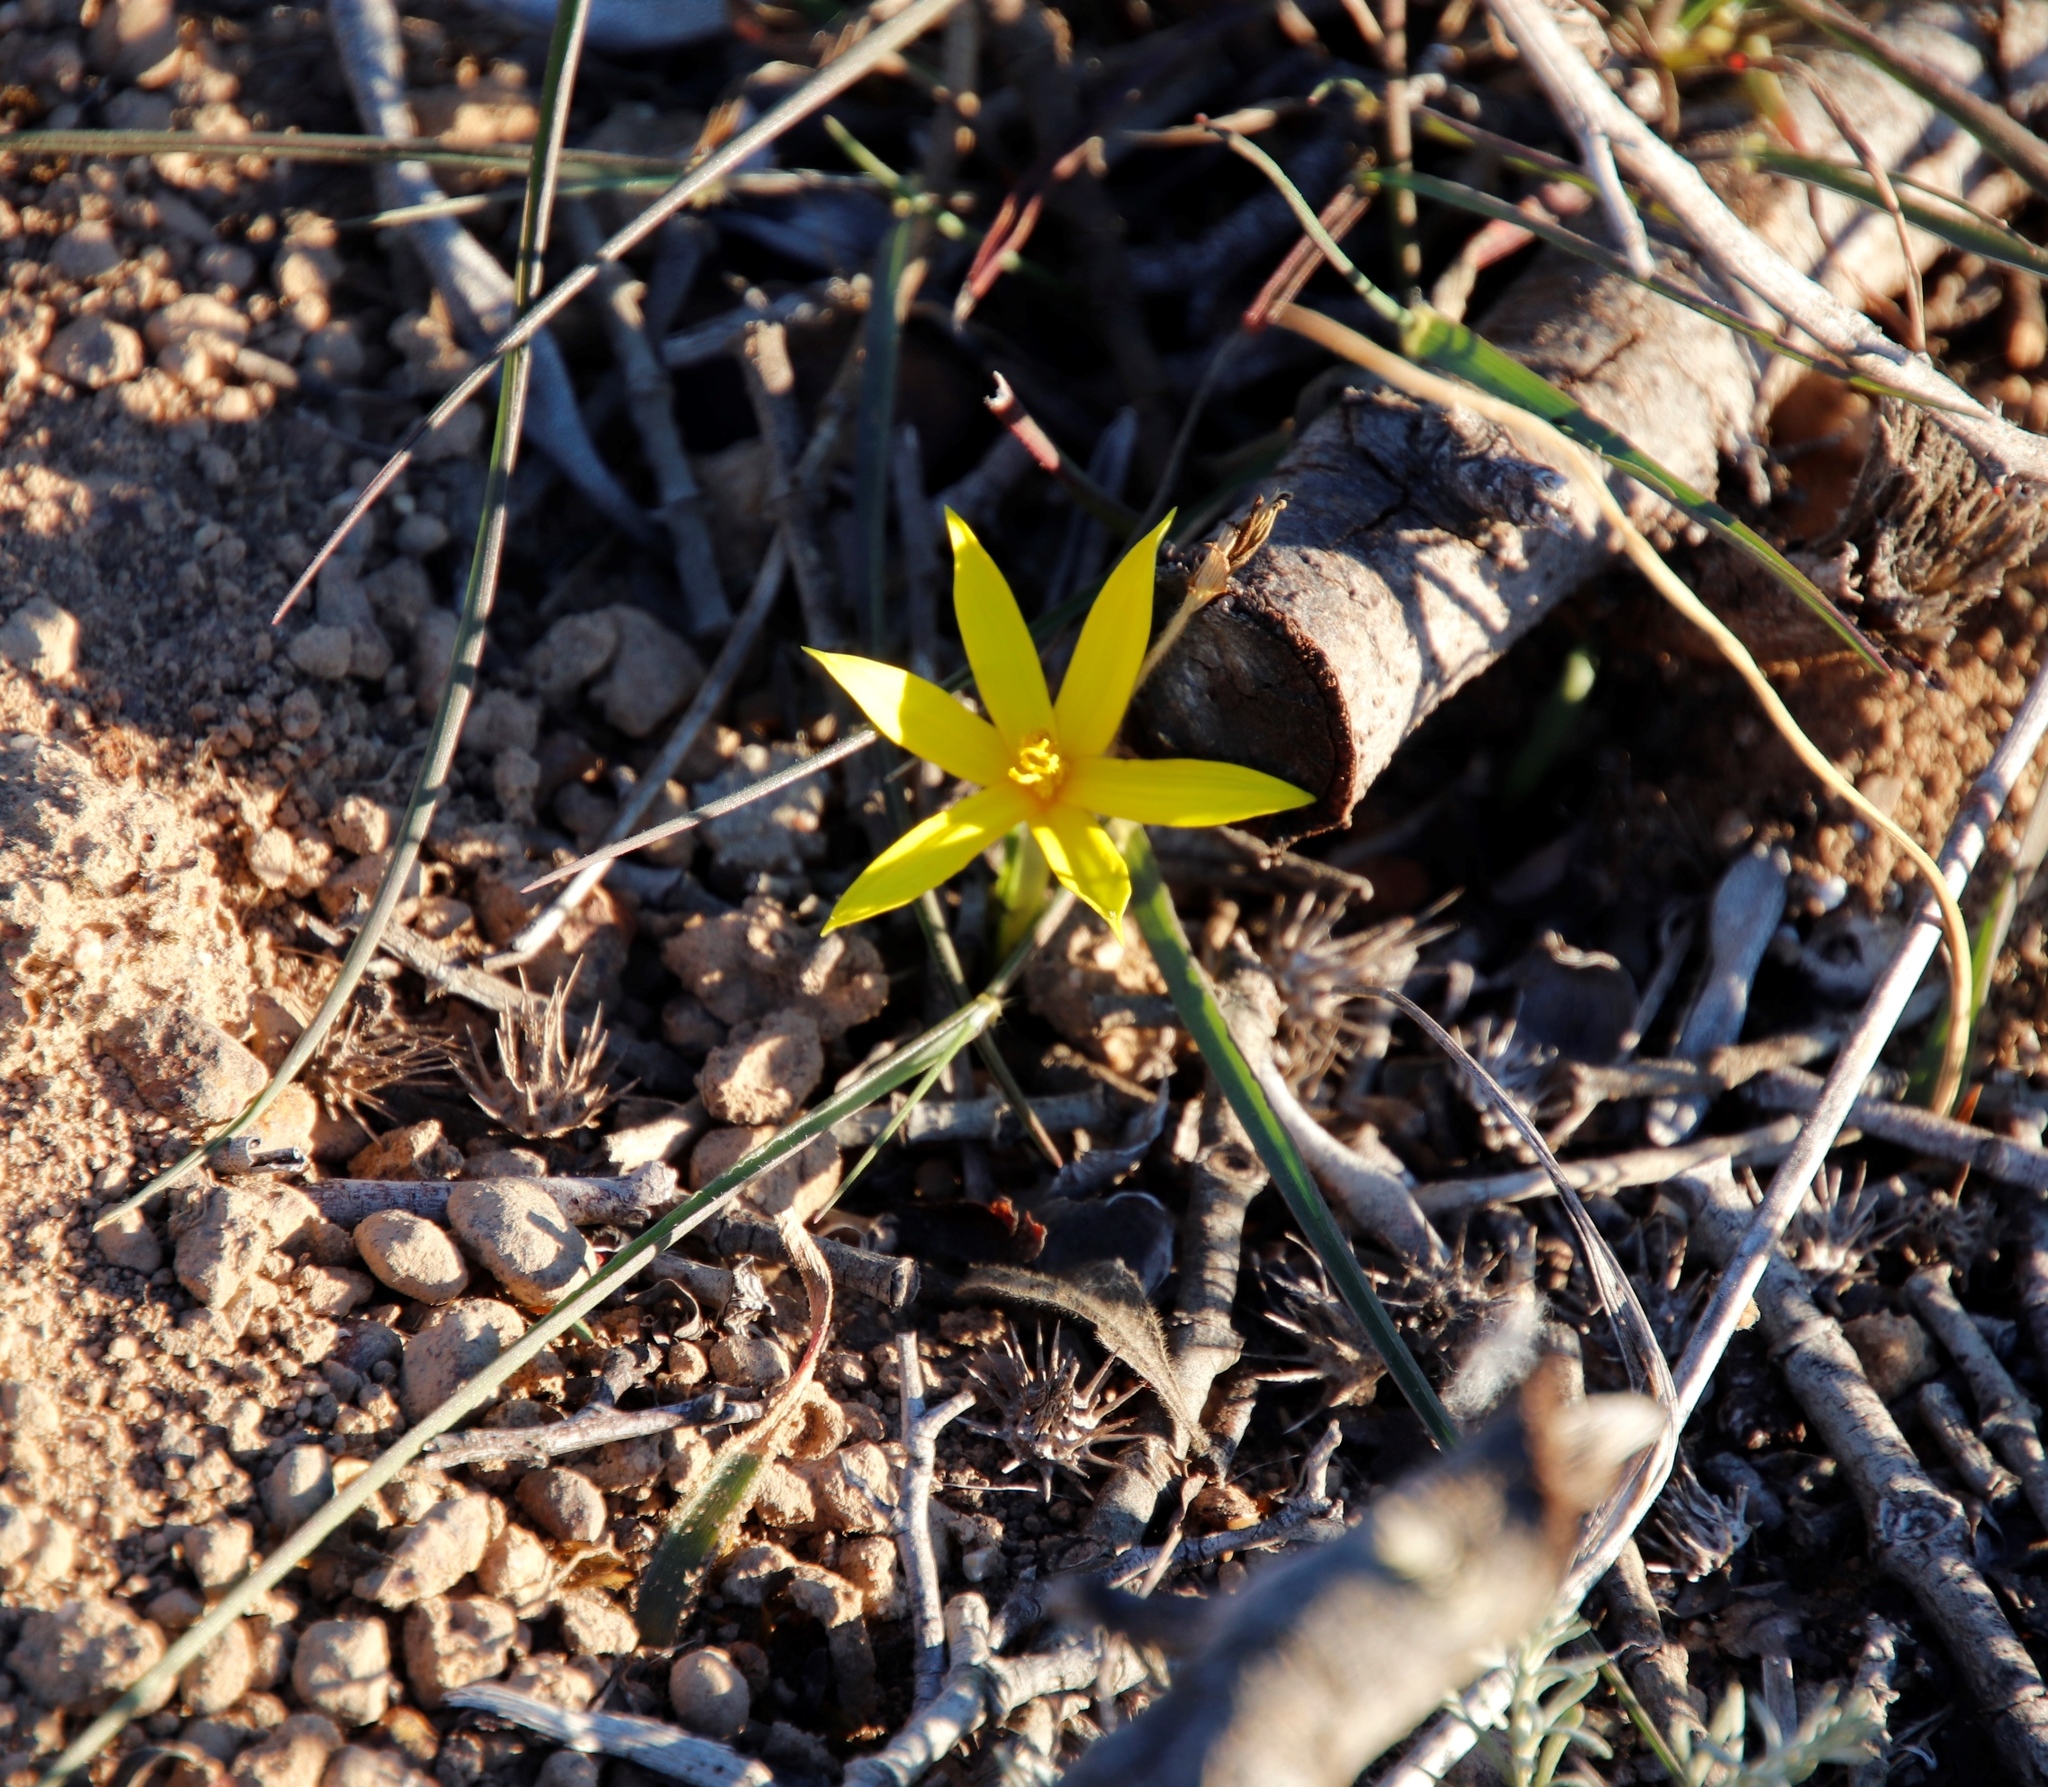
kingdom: Plantae
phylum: Tracheophyta
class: Liliopsida
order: Asparagales
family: Hypoxidaceae
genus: Empodium
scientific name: Empodium plicatum
